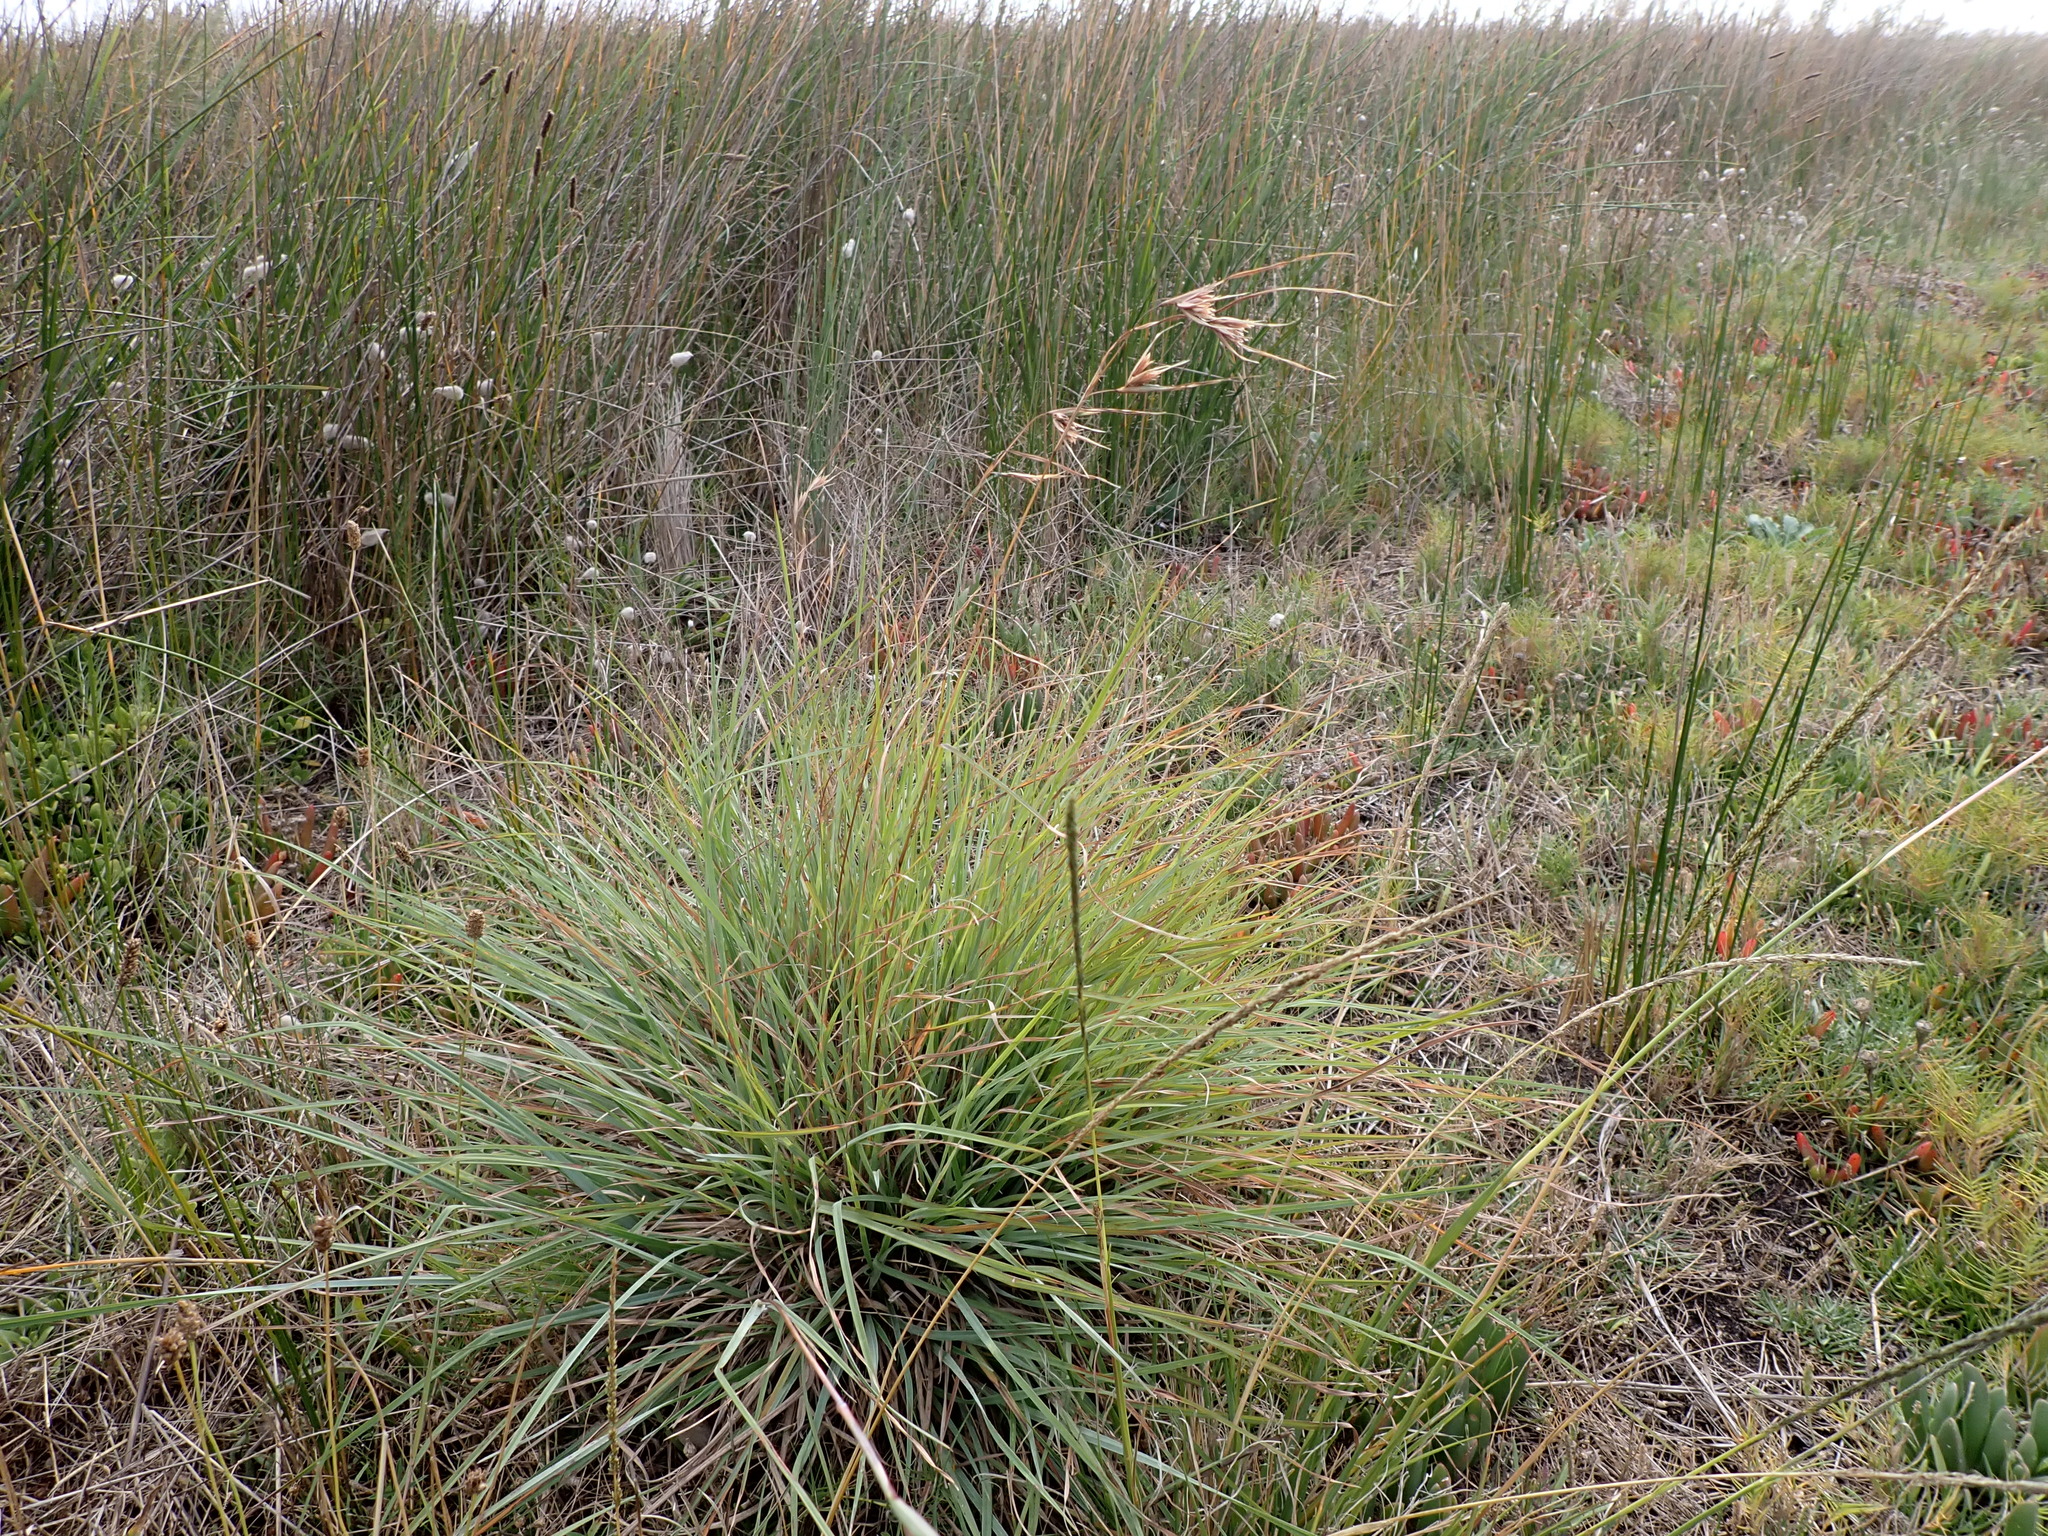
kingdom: Plantae
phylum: Tracheophyta
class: Liliopsida
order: Poales
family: Poaceae
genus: Themeda
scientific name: Themeda triandra
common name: Kangaroo grass
